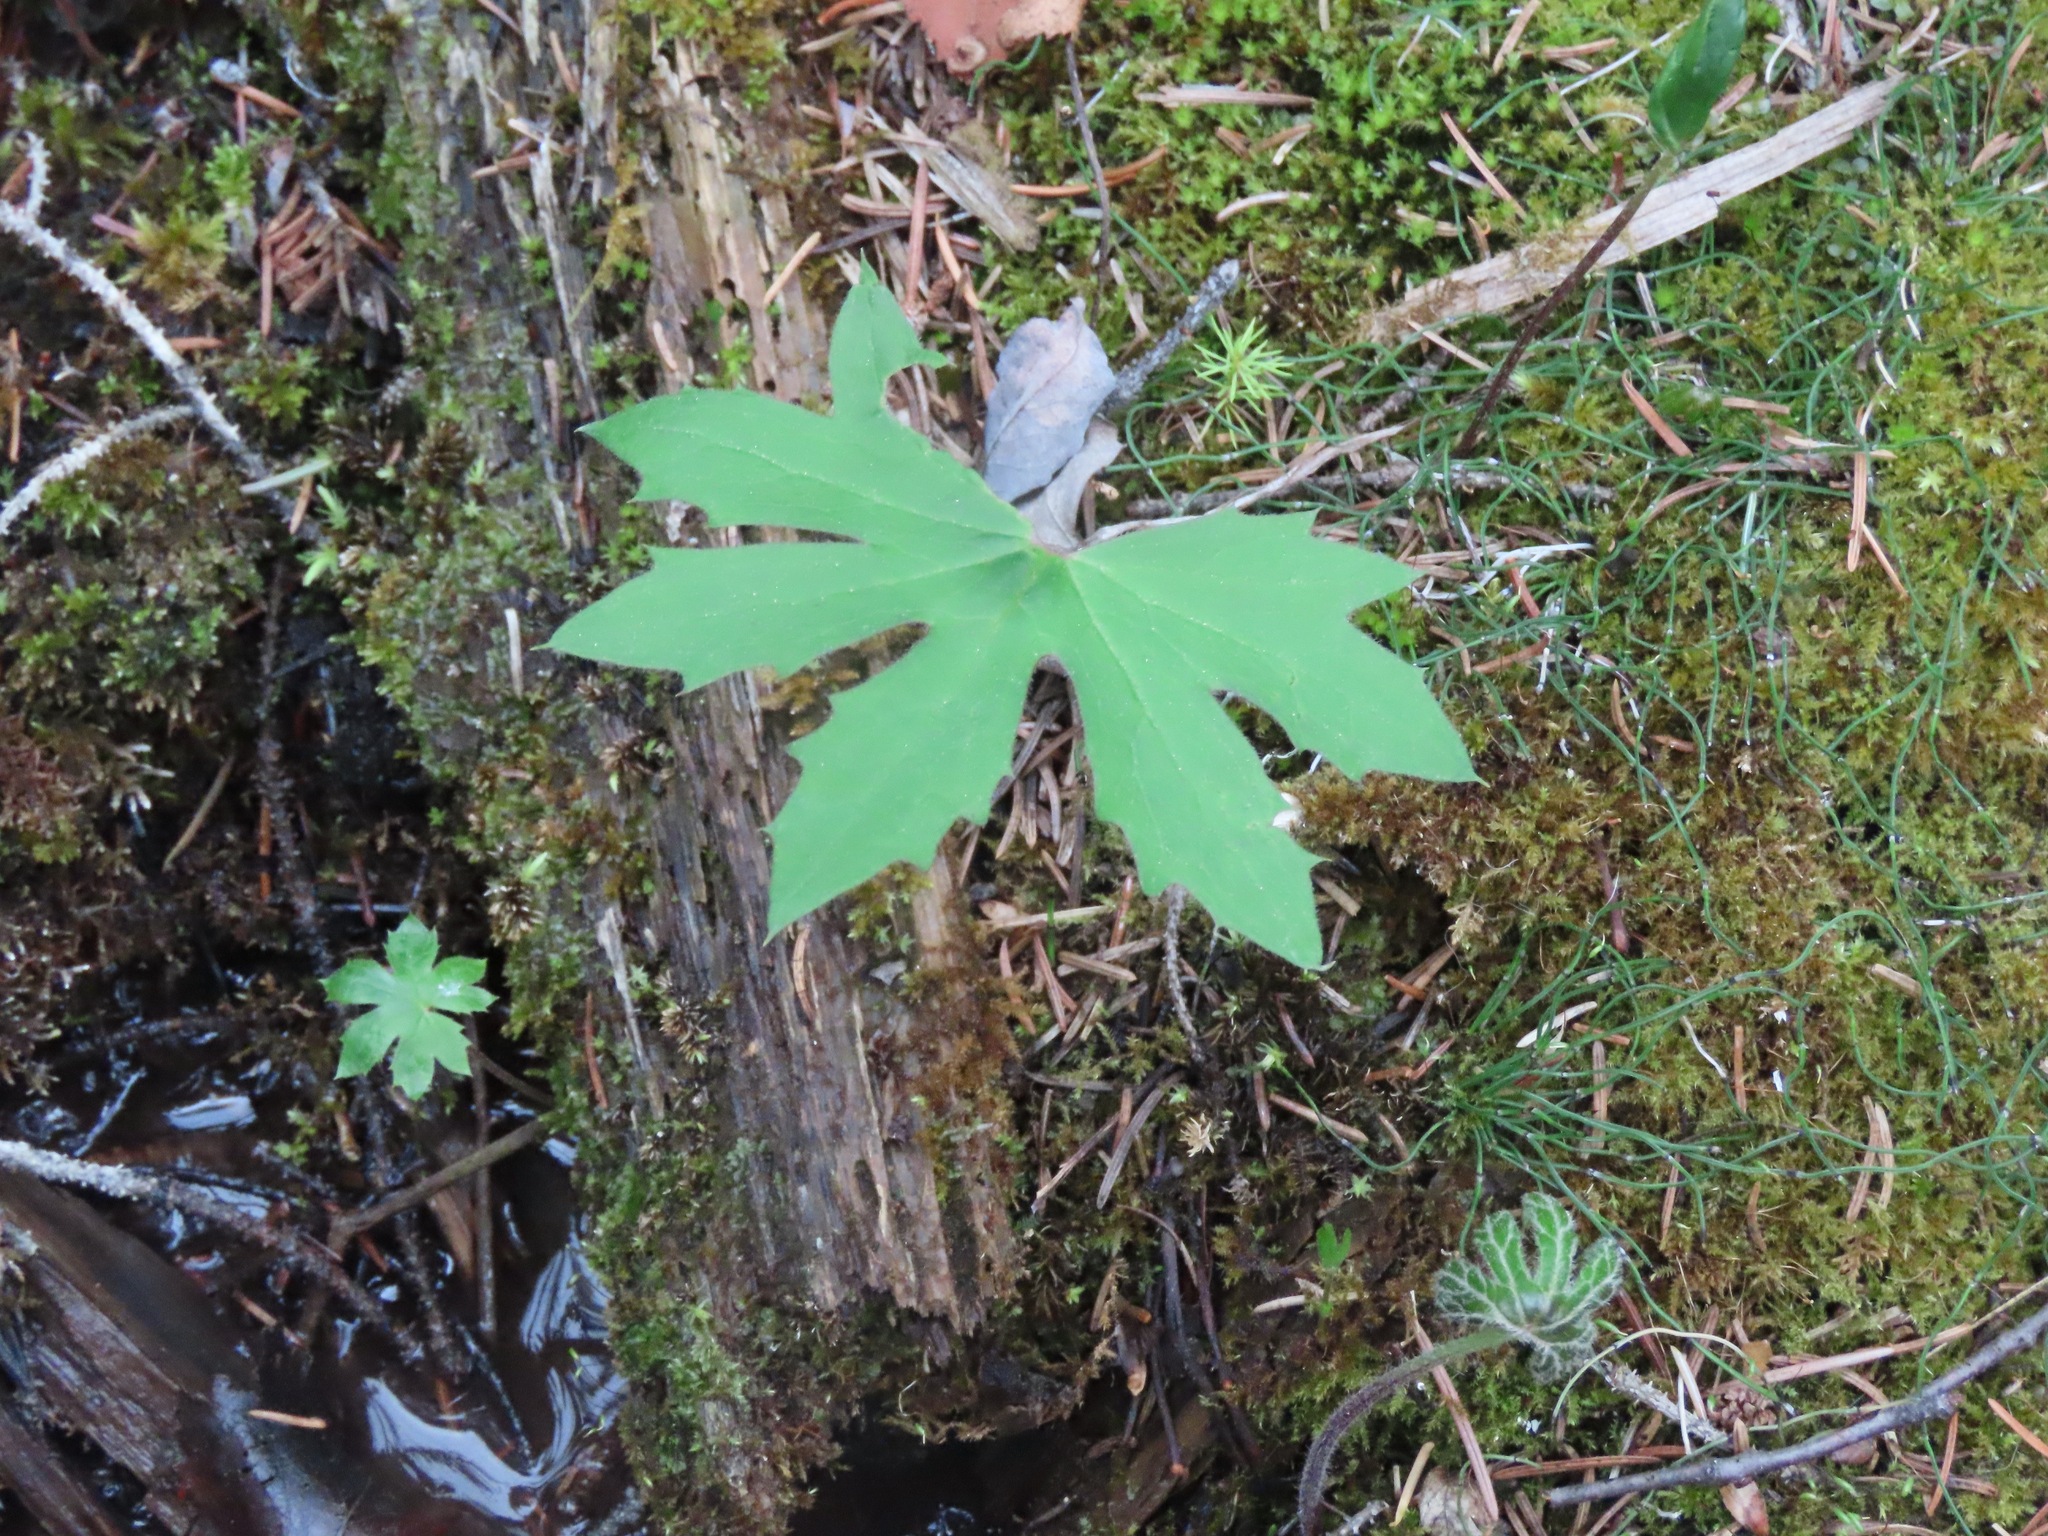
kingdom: Plantae
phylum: Tracheophyta
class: Magnoliopsida
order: Asterales
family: Asteraceae
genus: Petasites
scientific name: Petasites frigidus
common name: Arctic butterbur
